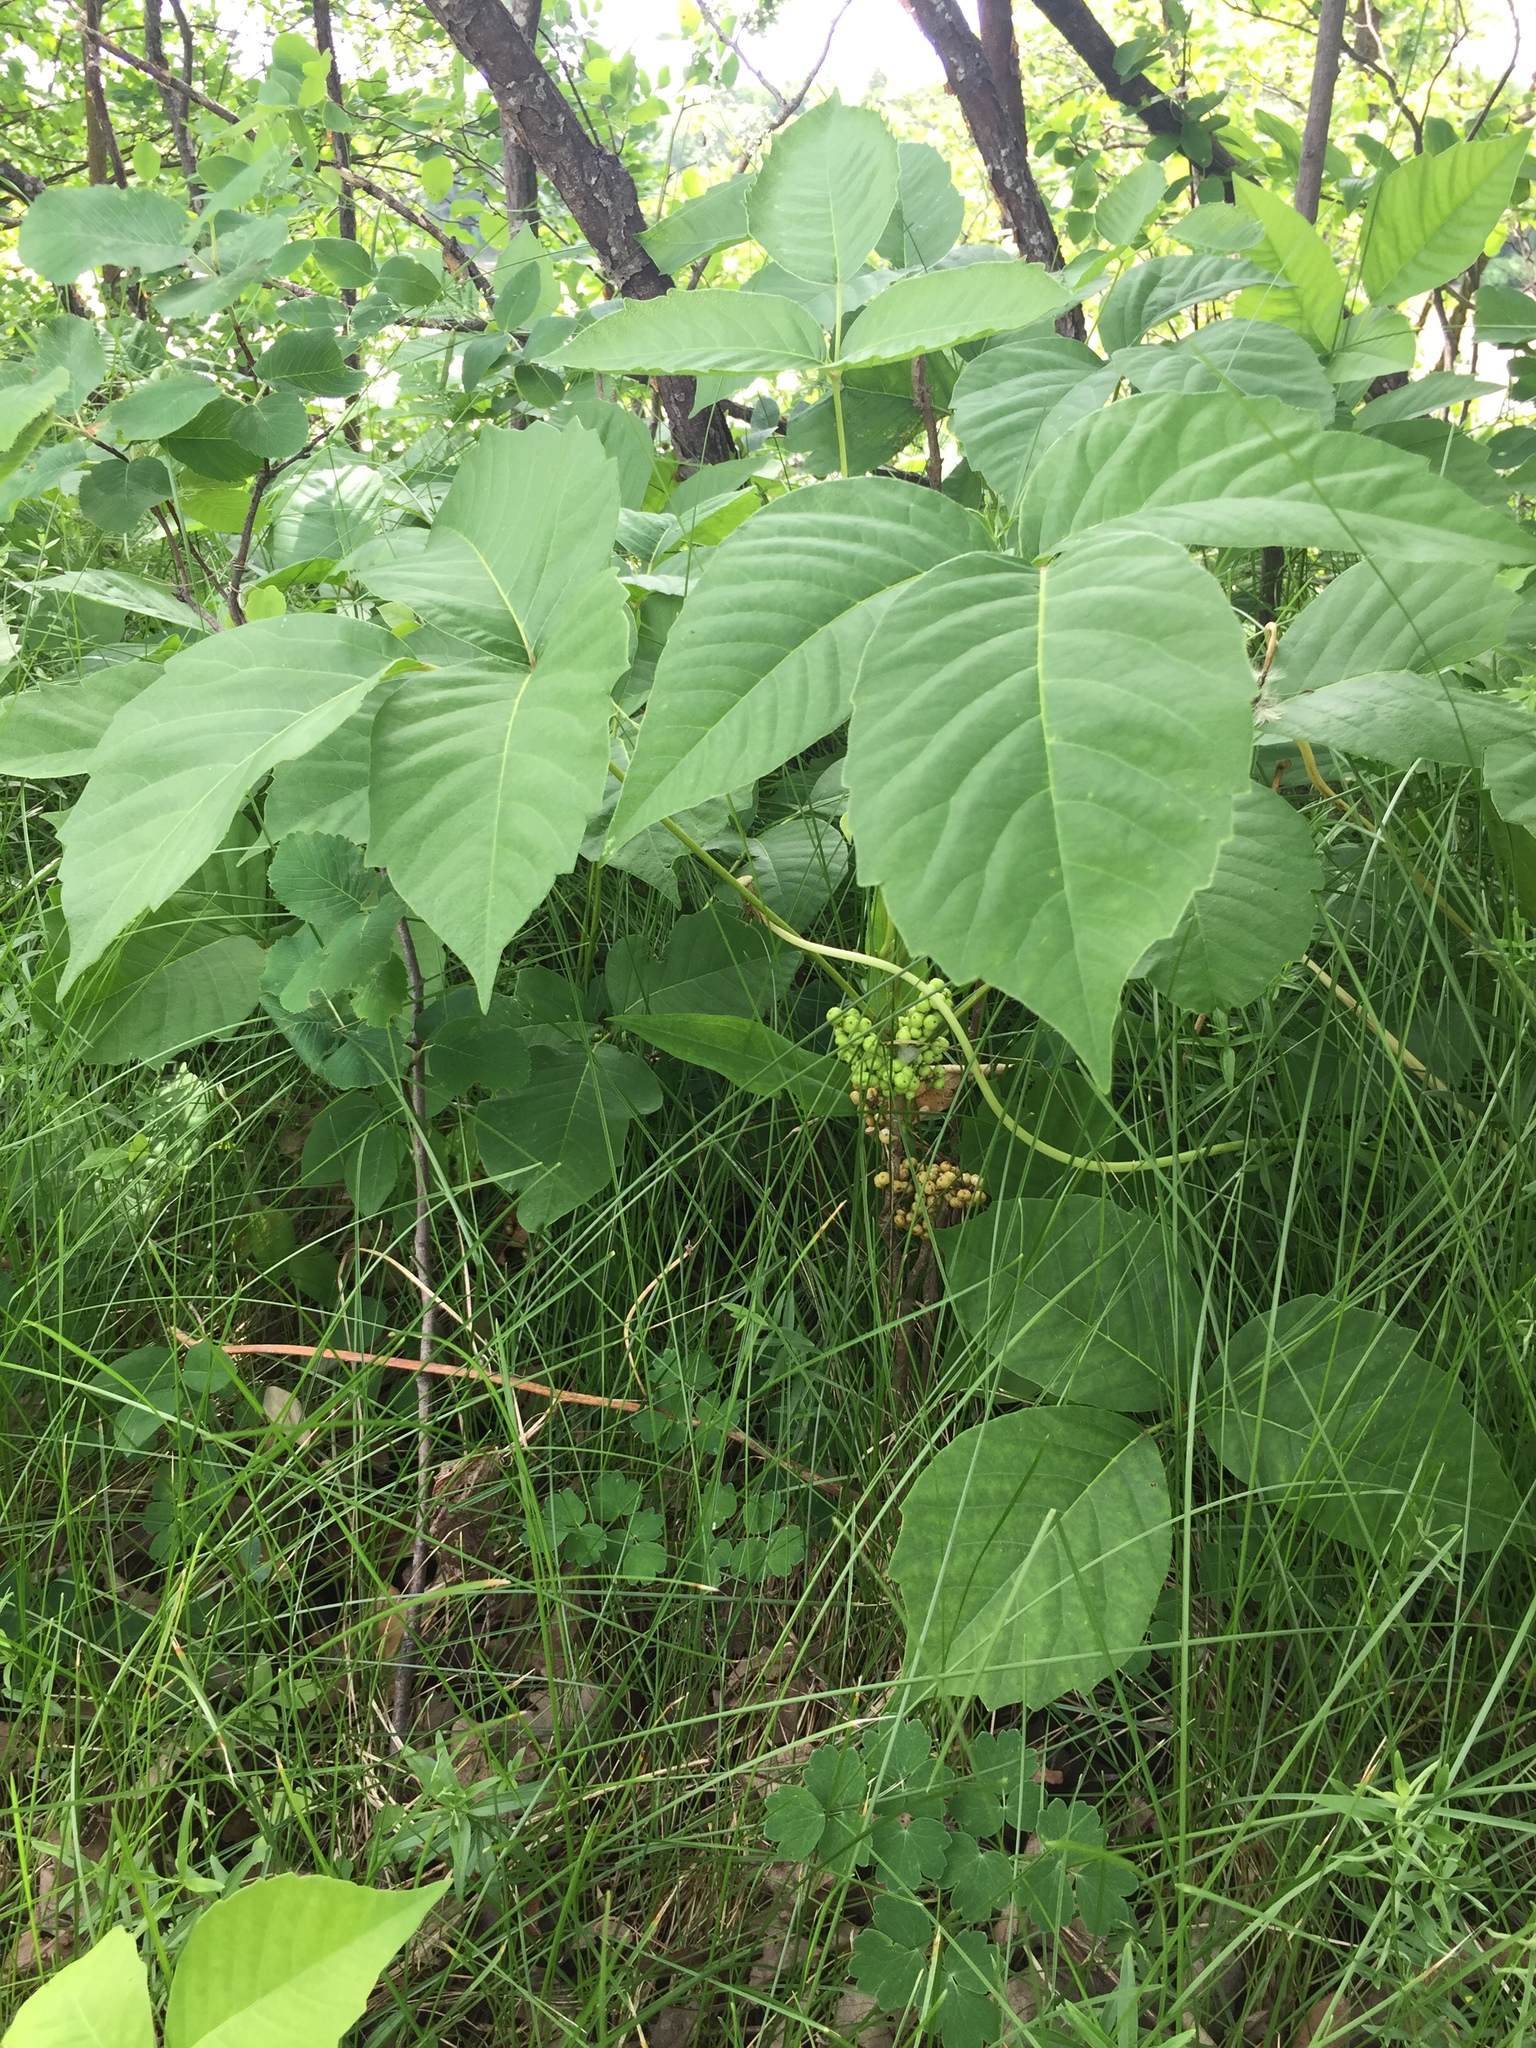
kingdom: Plantae
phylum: Tracheophyta
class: Magnoliopsida
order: Sapindales
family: Anacardiaceae
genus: Toxicodendron
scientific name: Toxicodendron rydbergii
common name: Rydberg's poison-ivy
